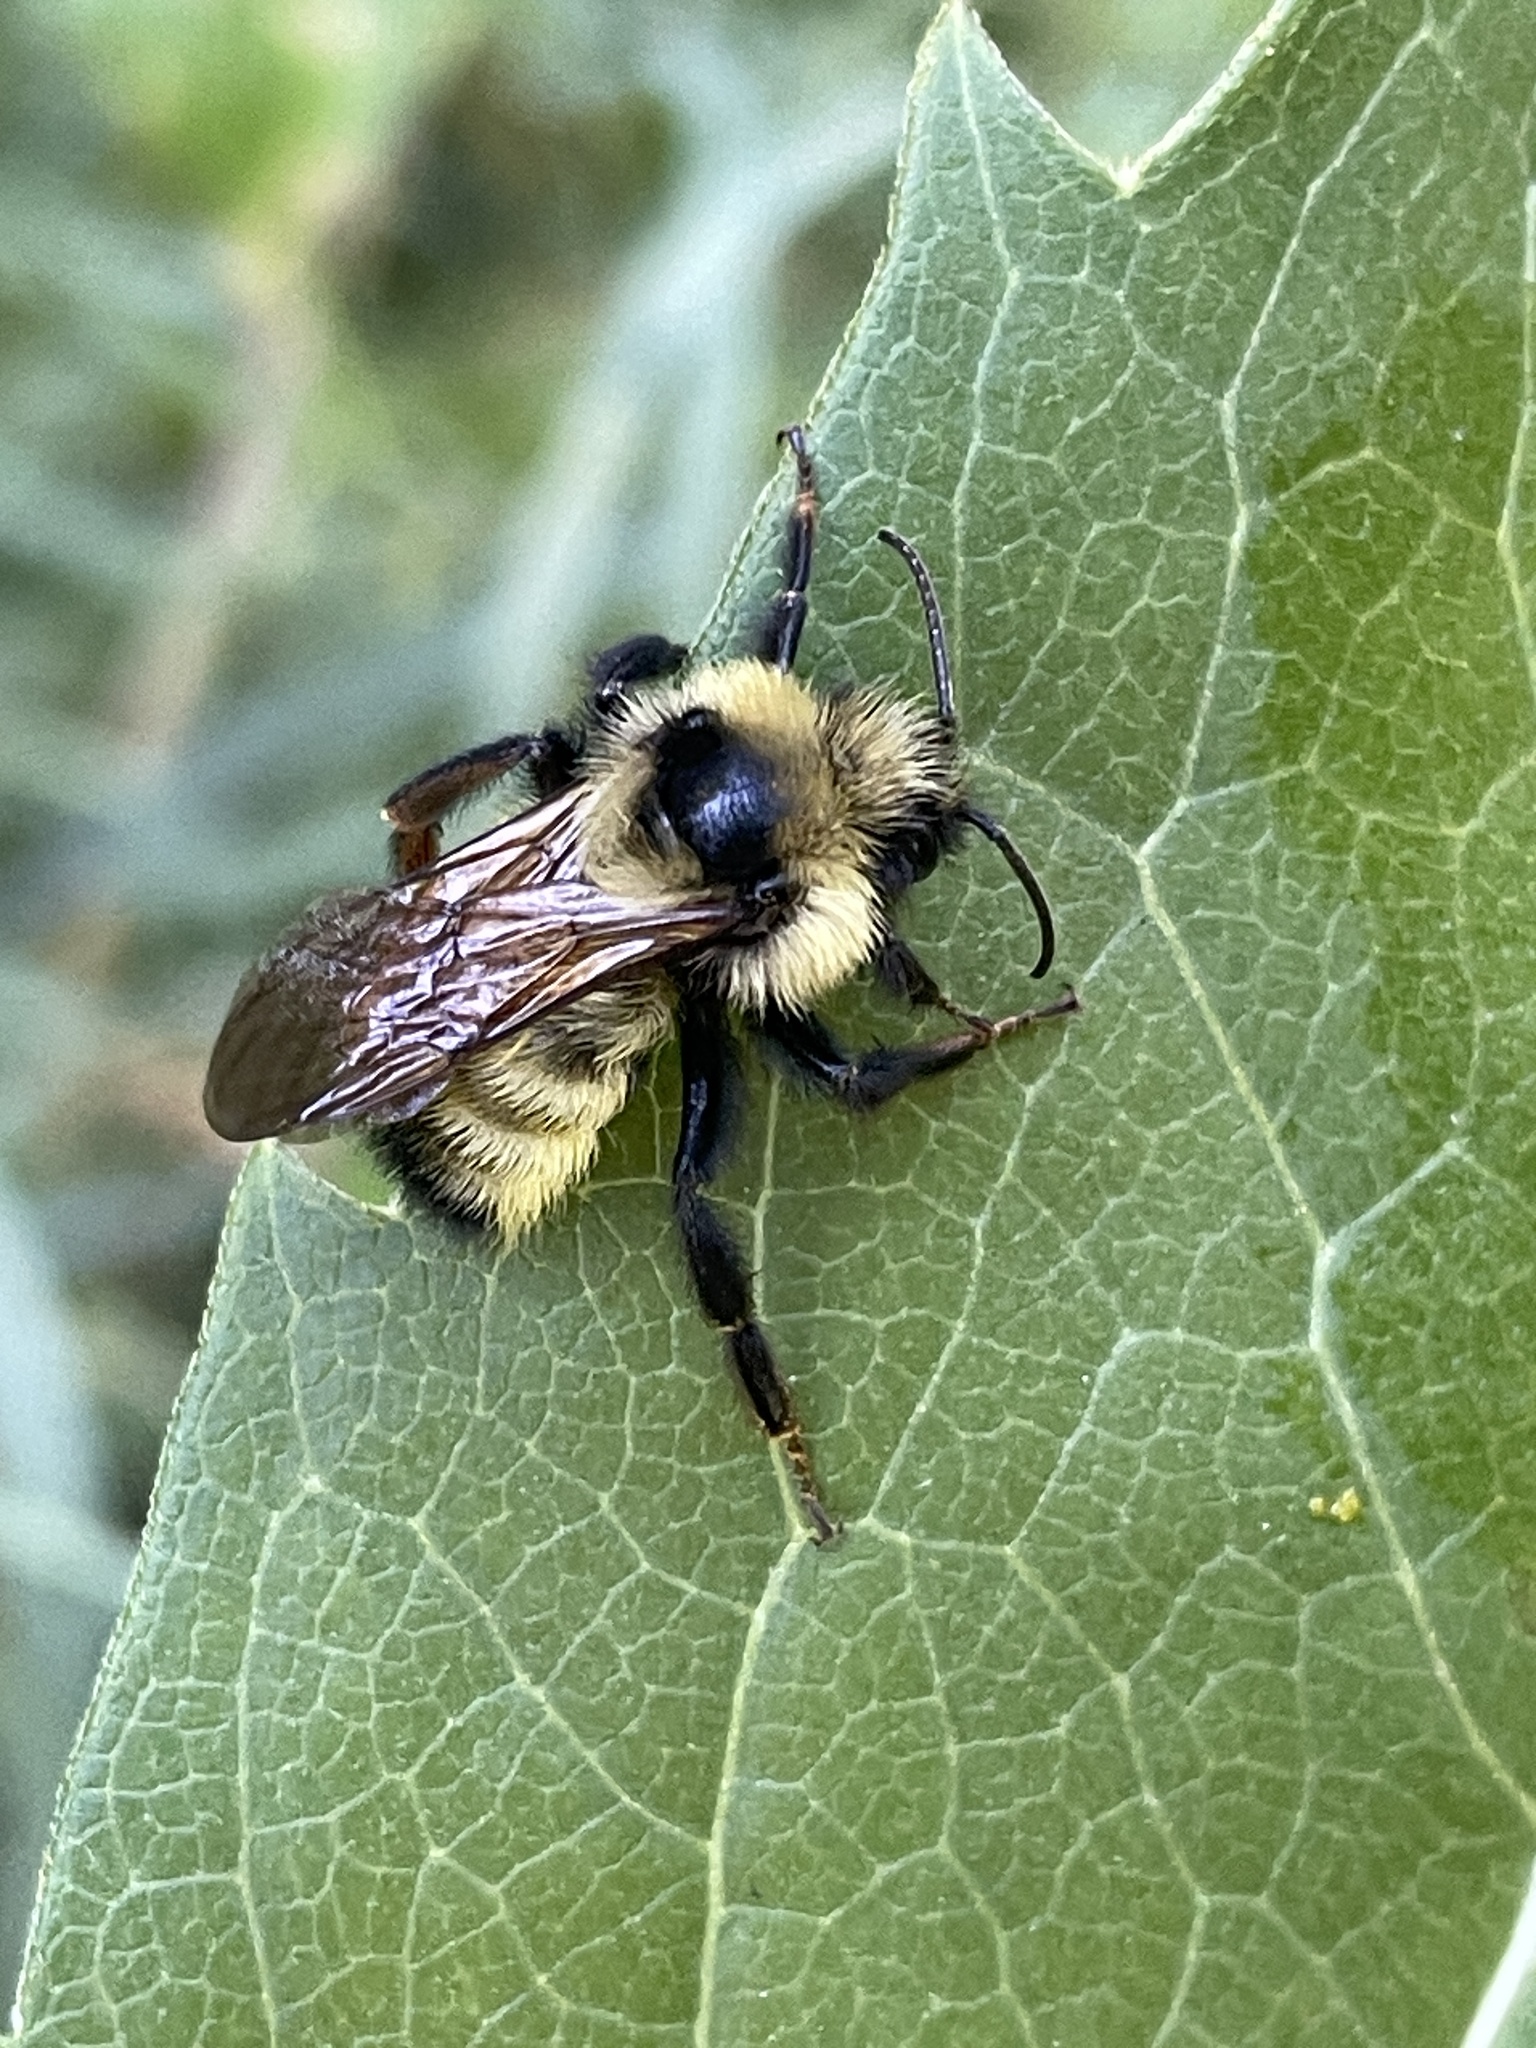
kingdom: Animalia
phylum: Arthropoda
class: Insecta
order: Hymenoptera
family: Apidae
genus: Bombus
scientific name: Bombus insularis
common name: Indiscriminate cuckoo bumble bee
